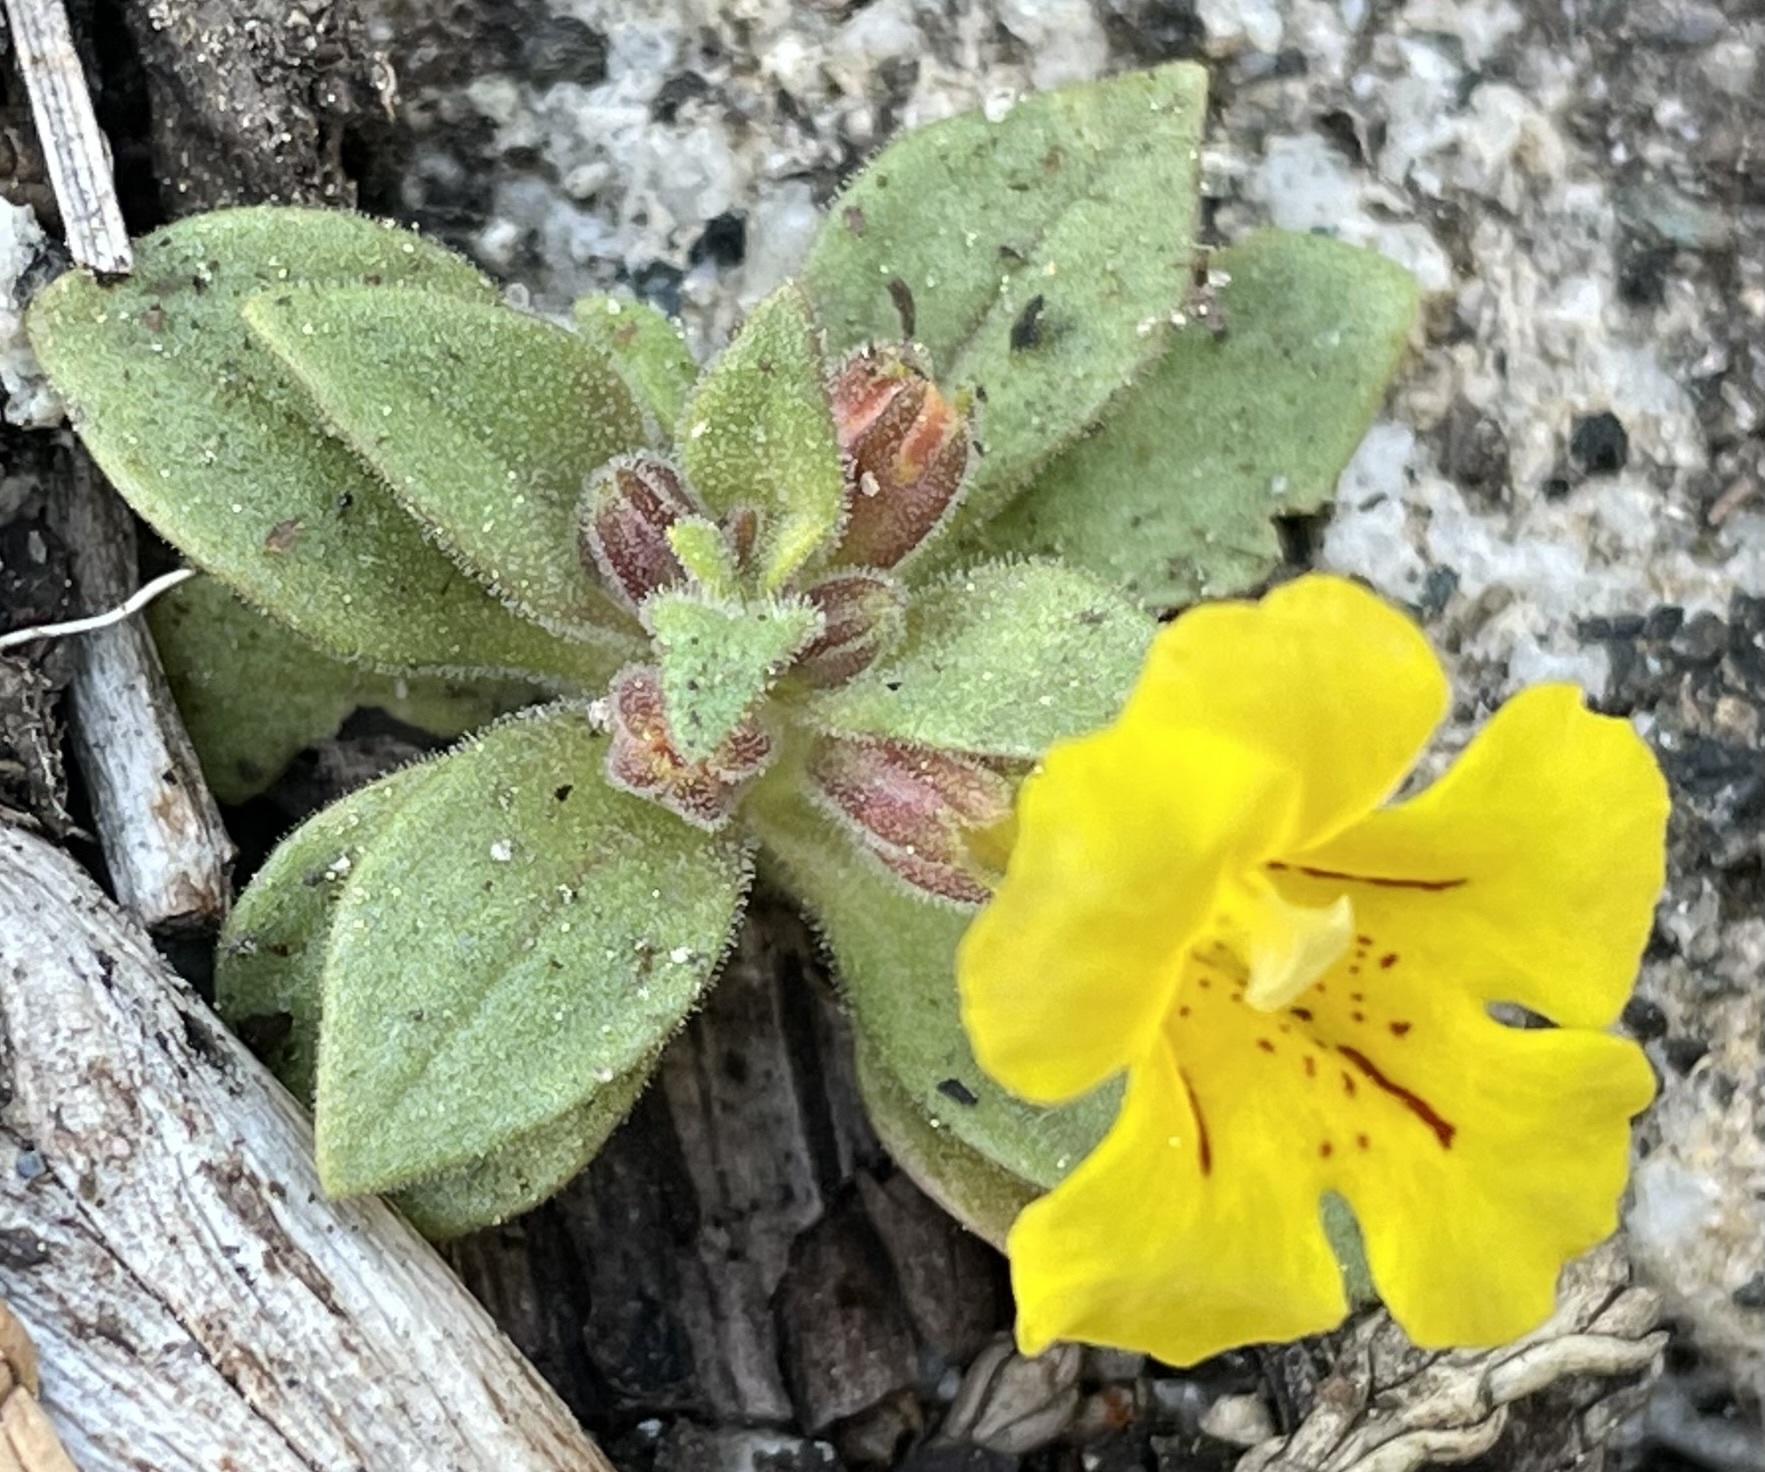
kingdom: Plantae
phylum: Tracheophyta
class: Magnoliopsida
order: Lamiales
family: Phrymaceae
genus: Diplacus
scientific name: Diplacus mephiticus
